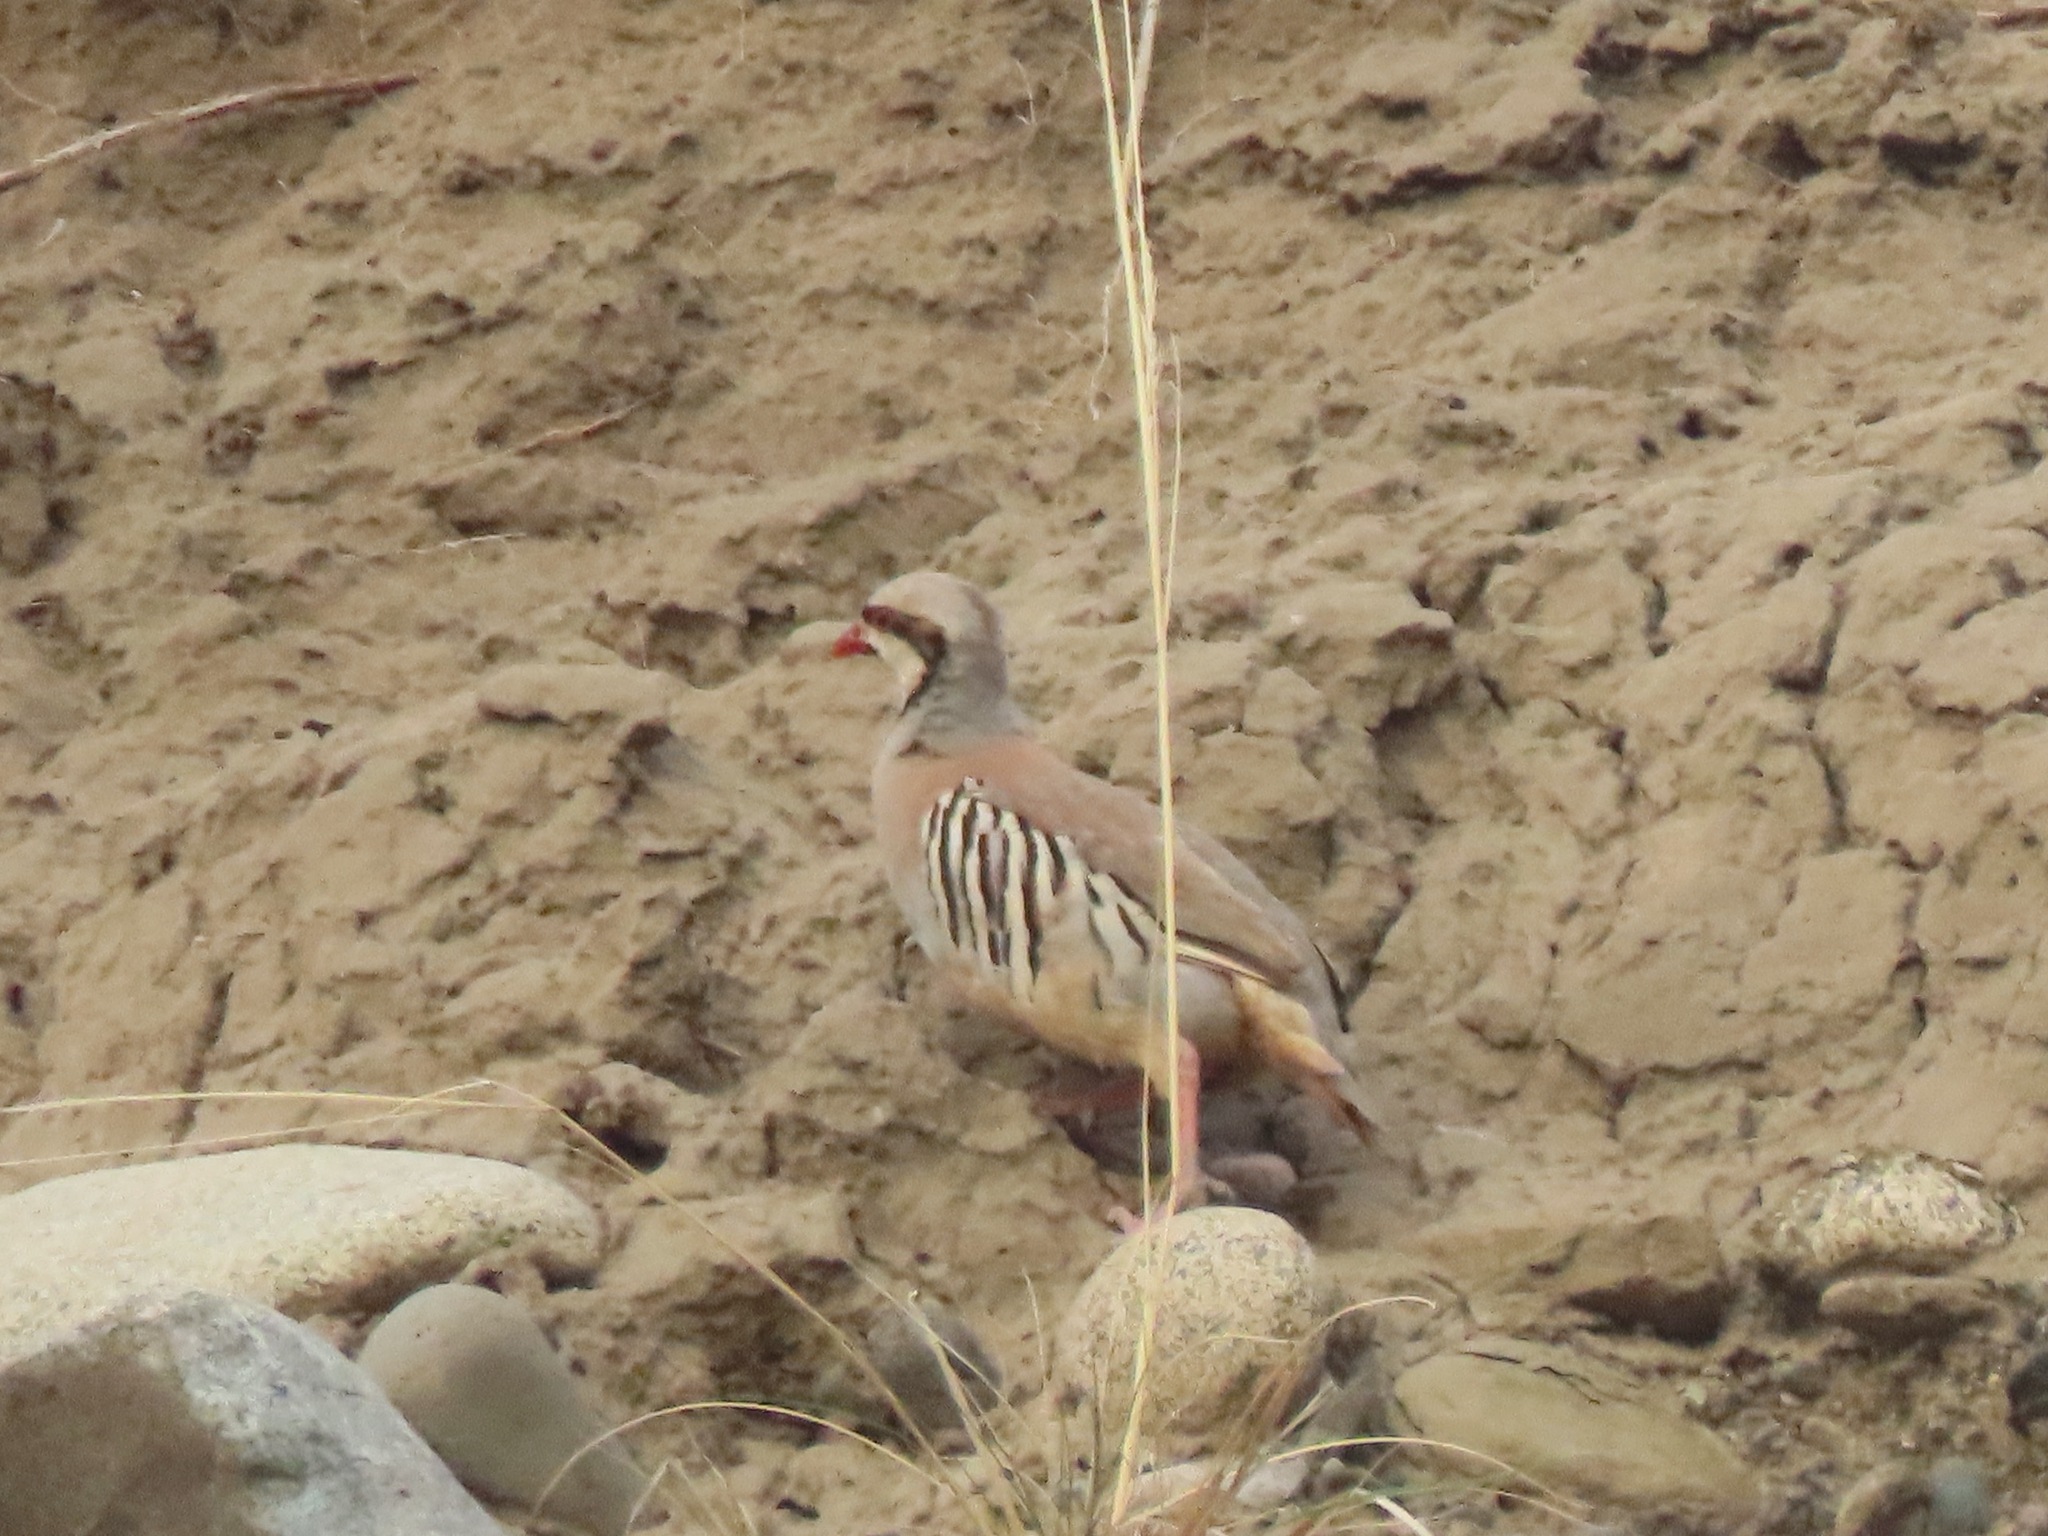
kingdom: Animalia
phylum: Chordata
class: Aves
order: Galliformes
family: Phasianidae
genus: Alectoris
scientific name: Alectoris chukar
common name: Chukar
